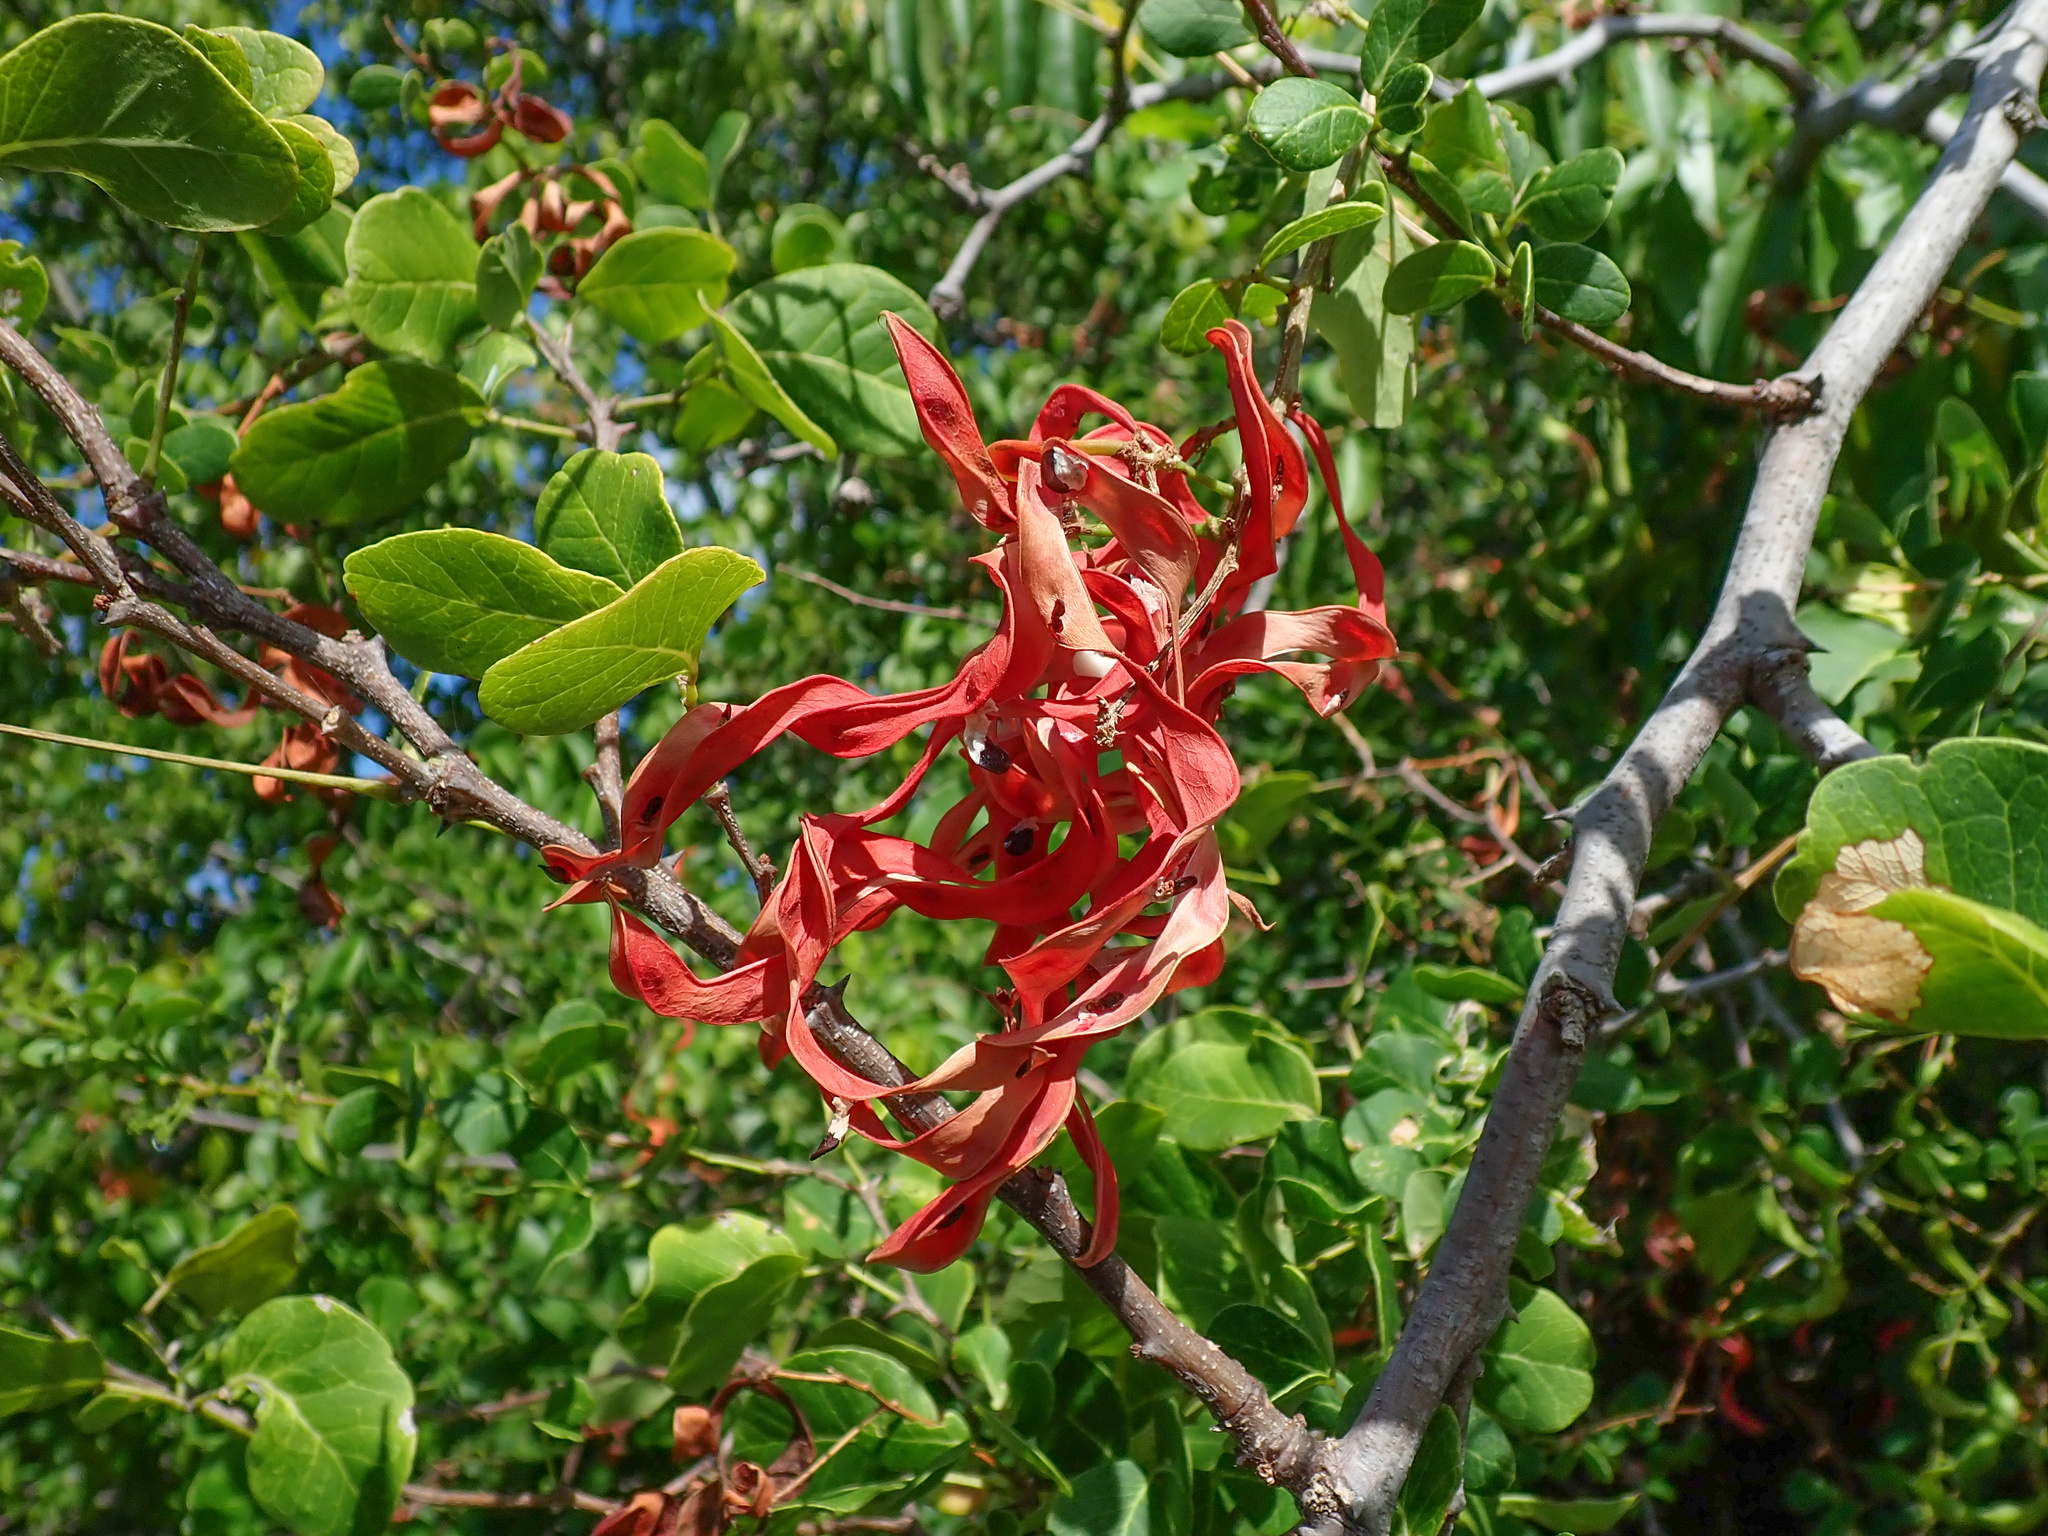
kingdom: Plantae
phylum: Tracheophyta
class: Magnoliopsida
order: Fabales
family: Fabaceae
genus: Pithecellobium
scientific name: Pithecellobium unguis-cati
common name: Cat's-claw
